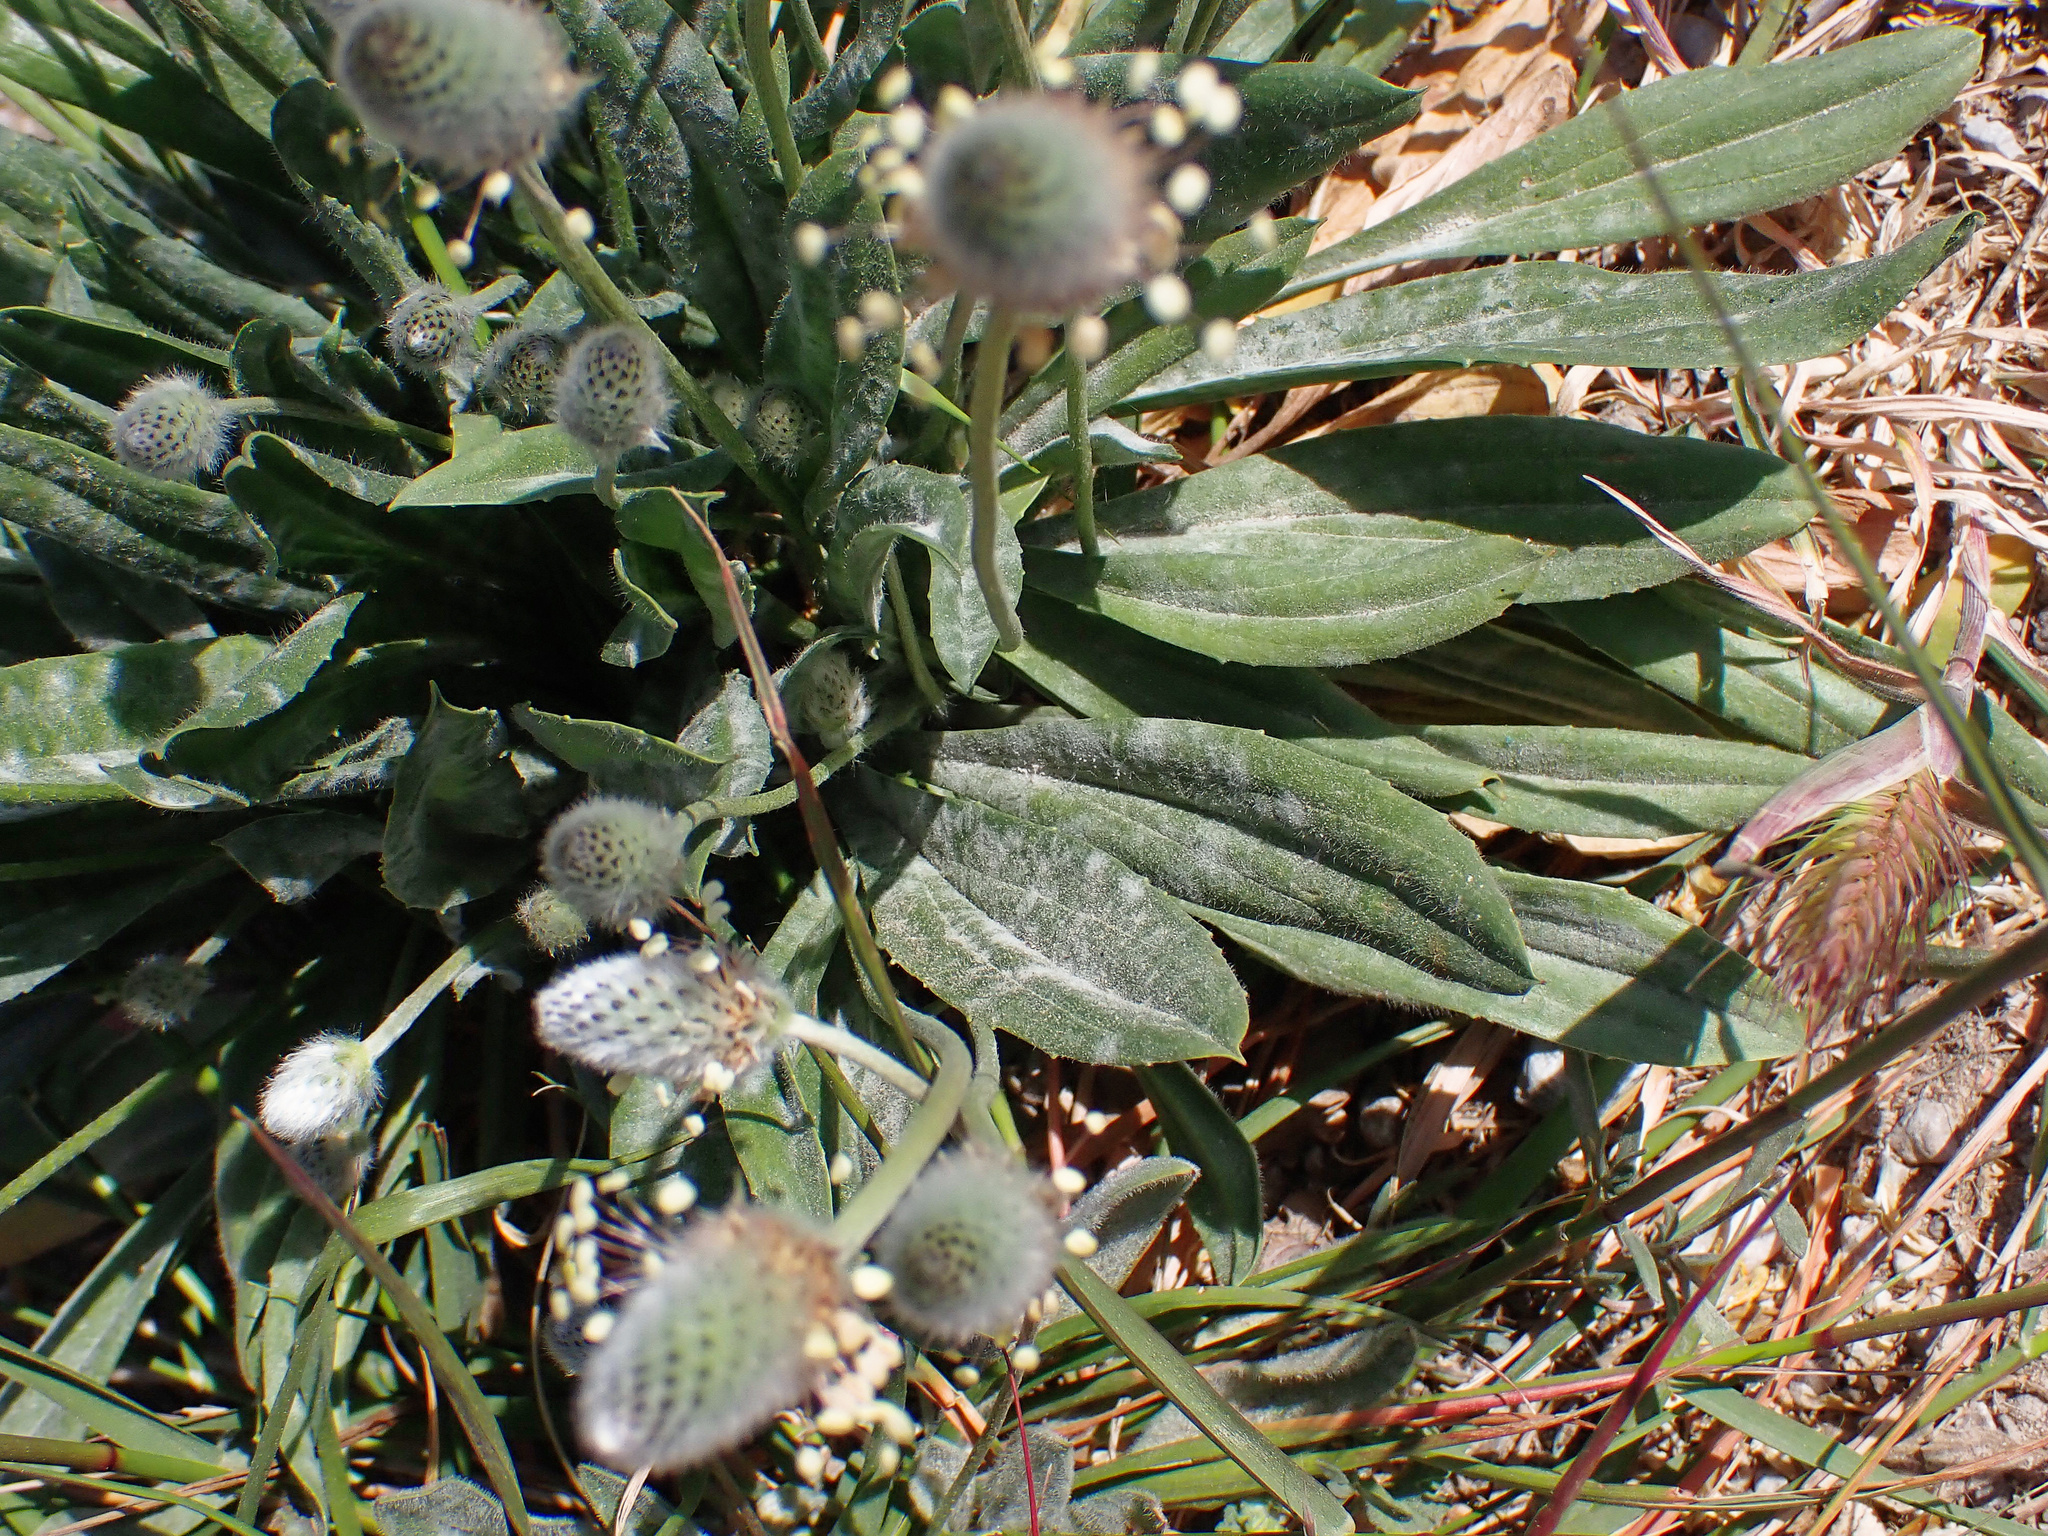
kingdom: Plantae
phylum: Tracheophyta
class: Magnoliopsida
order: Lamiales
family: Plantaginaceae
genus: Plantago
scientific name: Plantago lagopus
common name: Hare-foot plantain
